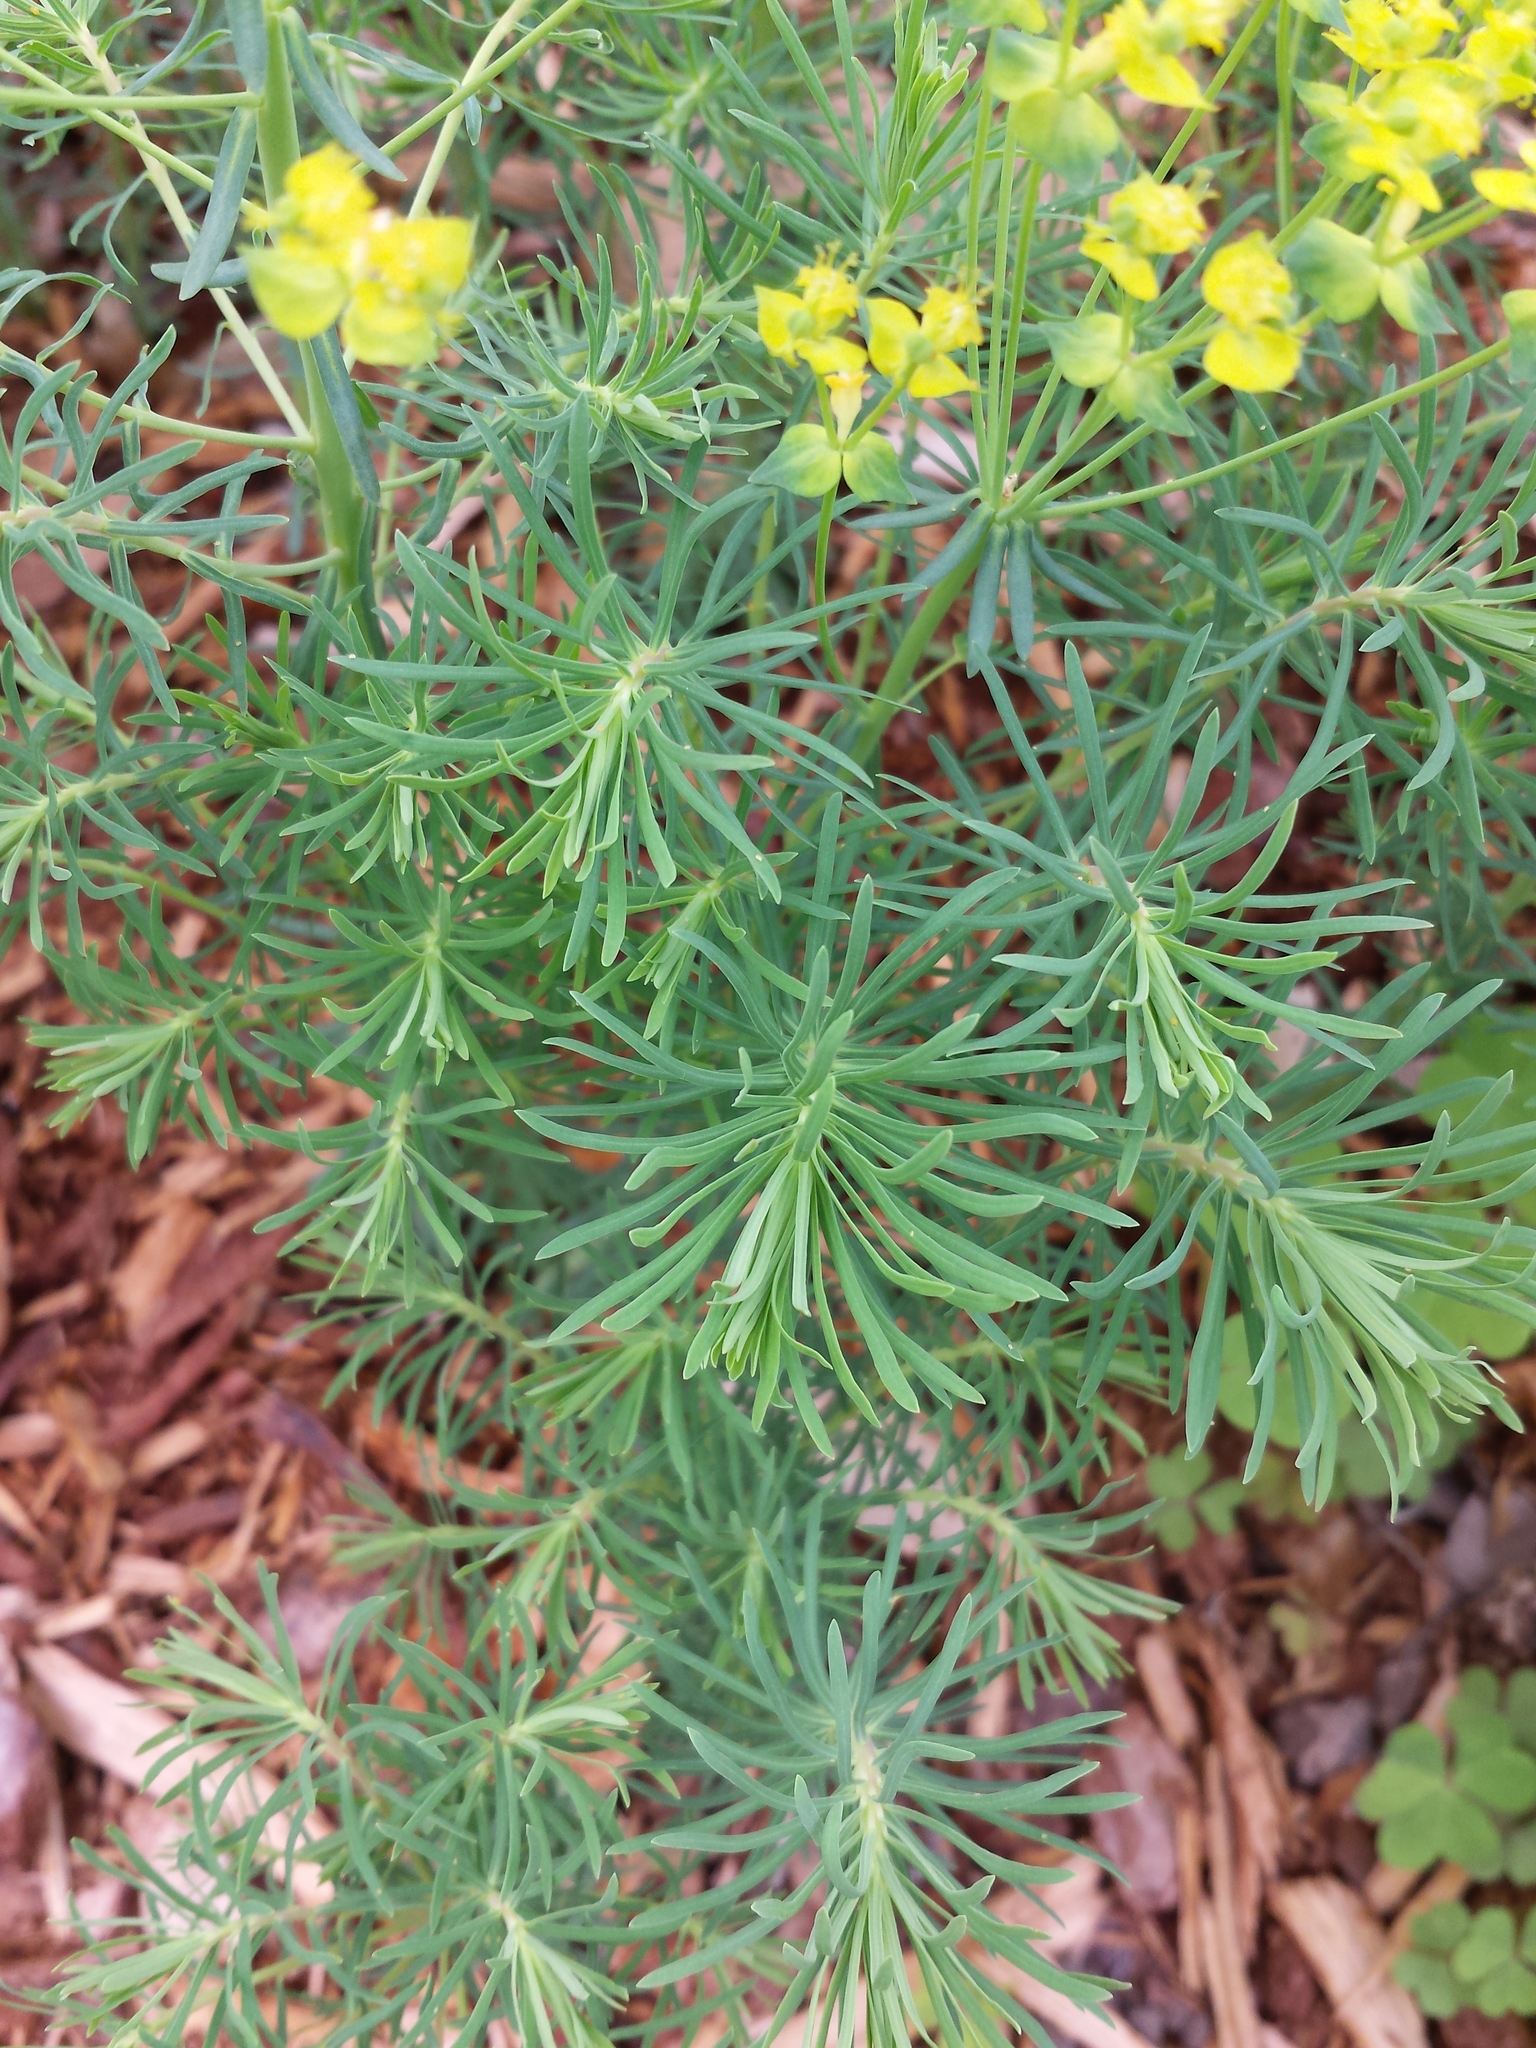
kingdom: Plantae
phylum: Tracheophyta
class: Magnoliopsida
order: Malpighiales
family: Euphorbiaceae
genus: Euphorbia
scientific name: Euphorbia cyparissias
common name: Cypress spurge
